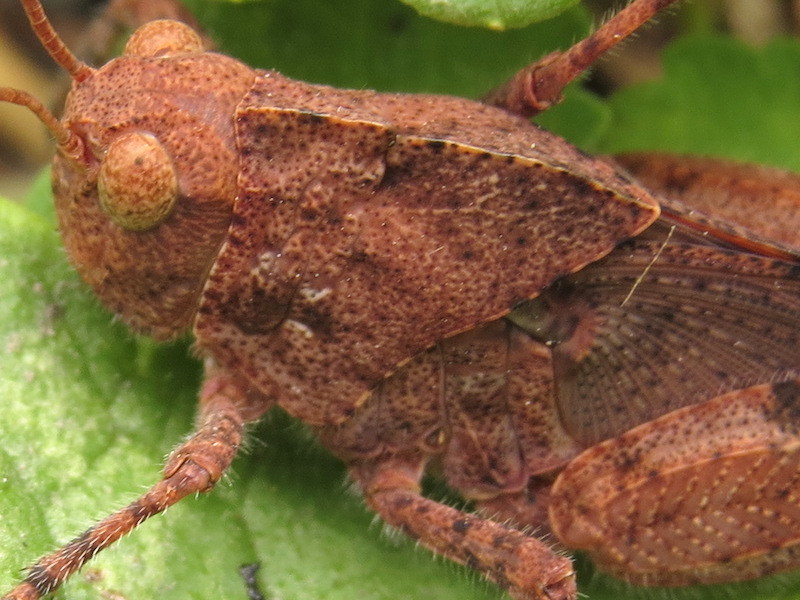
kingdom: Animalia
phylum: Arthropoda
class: Insecta
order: Orthoptera
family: Acrididae
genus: Dissosteira
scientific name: Dissosteira carolina
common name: Carolina grasshopper
